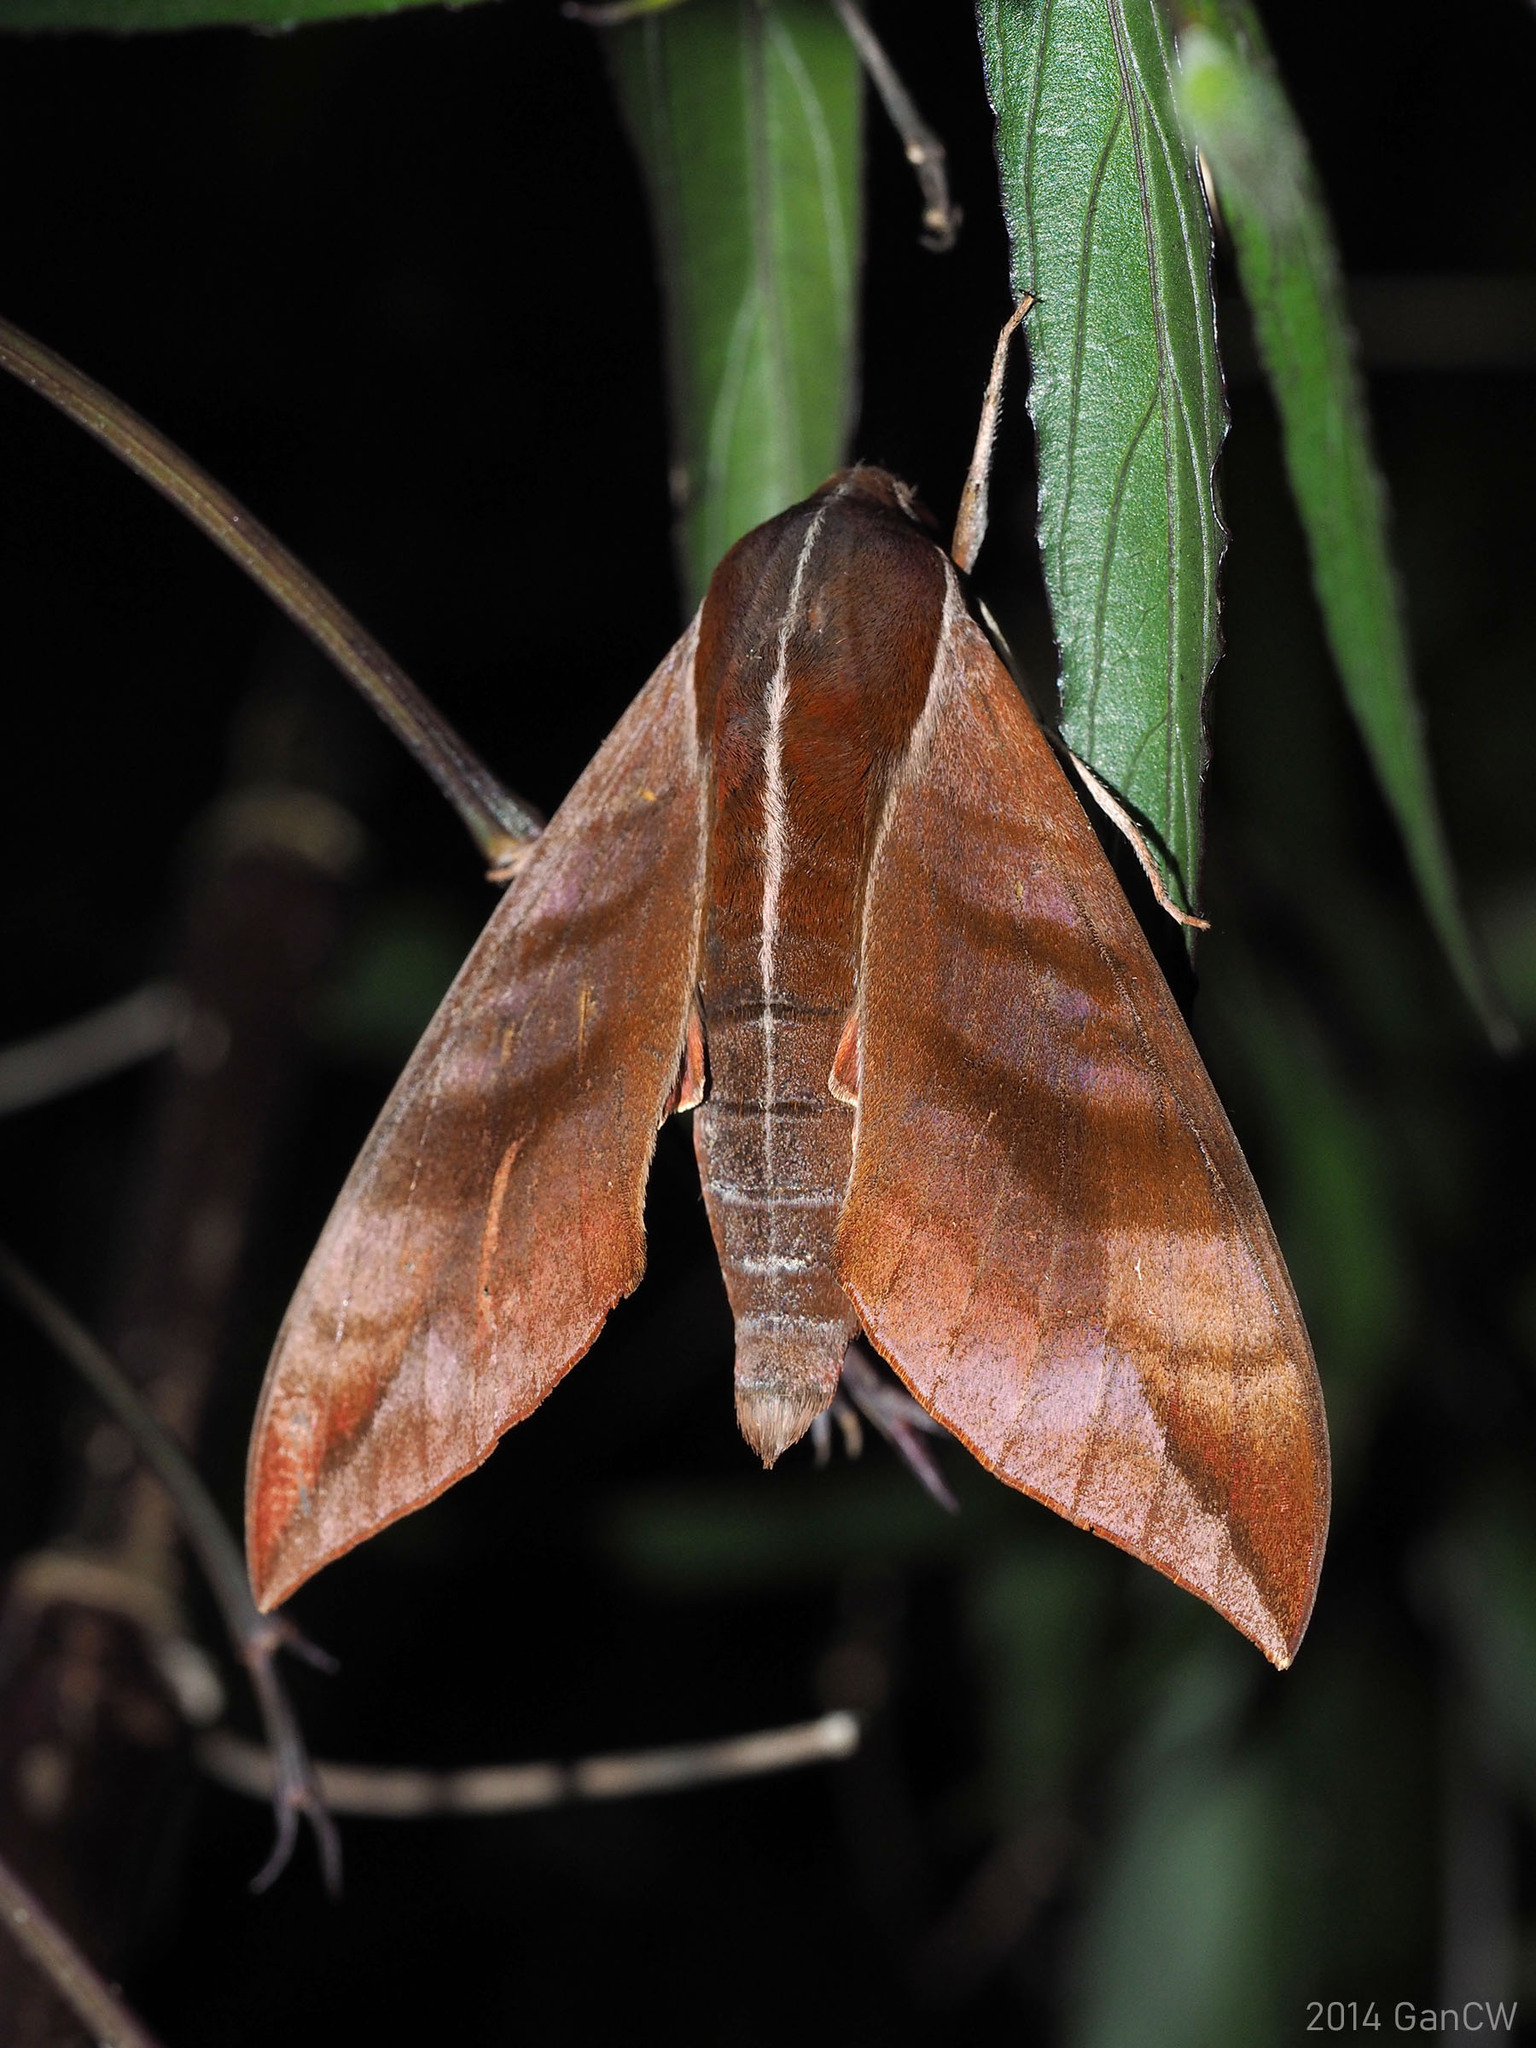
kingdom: Animalia
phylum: Arthropoda
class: Insecta
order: Lepidoptera
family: Sphingidae
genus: Ampelophaga
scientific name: Ampelophaga rubiginosa
